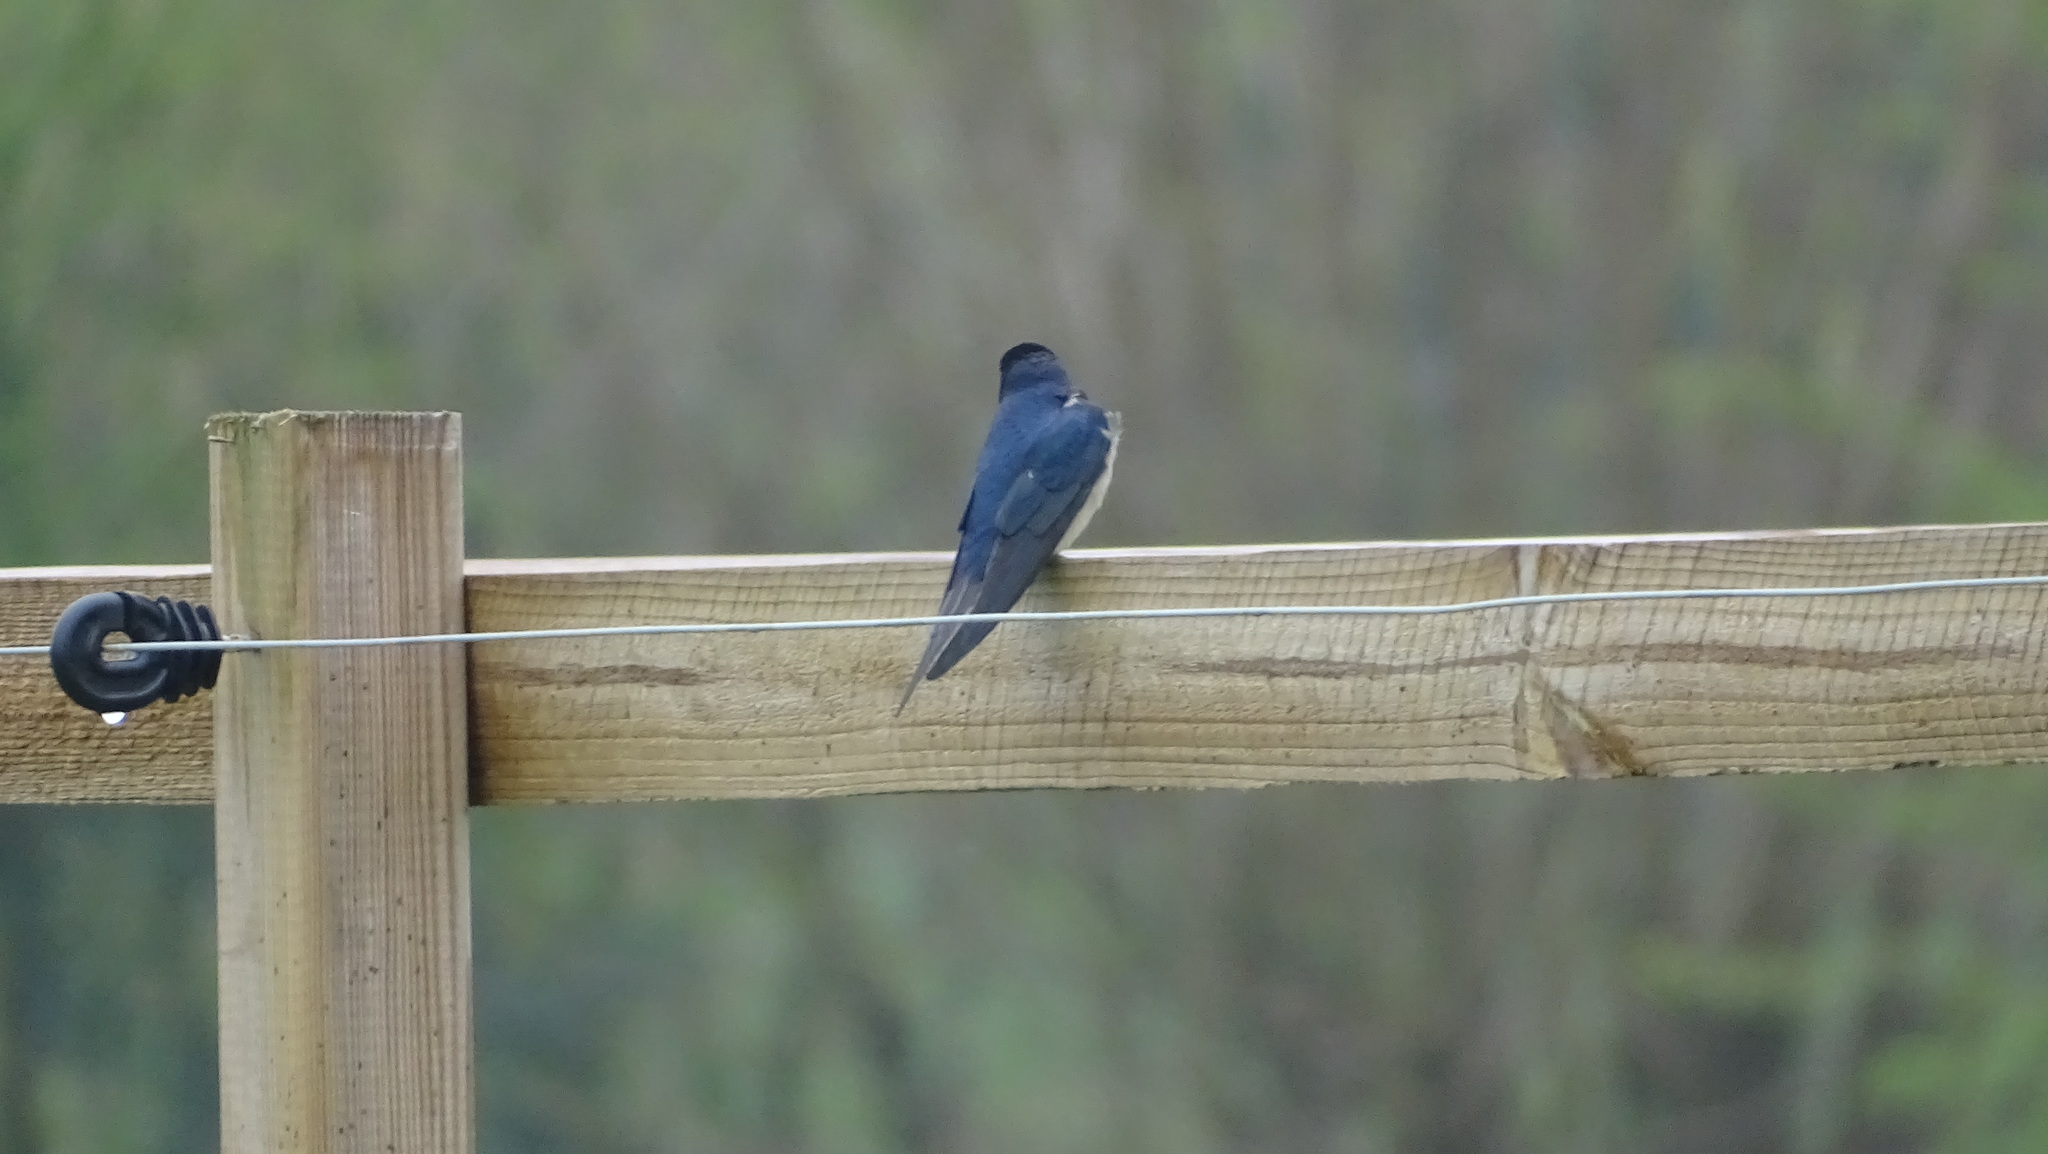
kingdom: Animalia
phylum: Chordata
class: Aves
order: Passeriformes
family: Hirundinidae
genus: Hirundo
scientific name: Hirundo rustica
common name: Barn swallow
